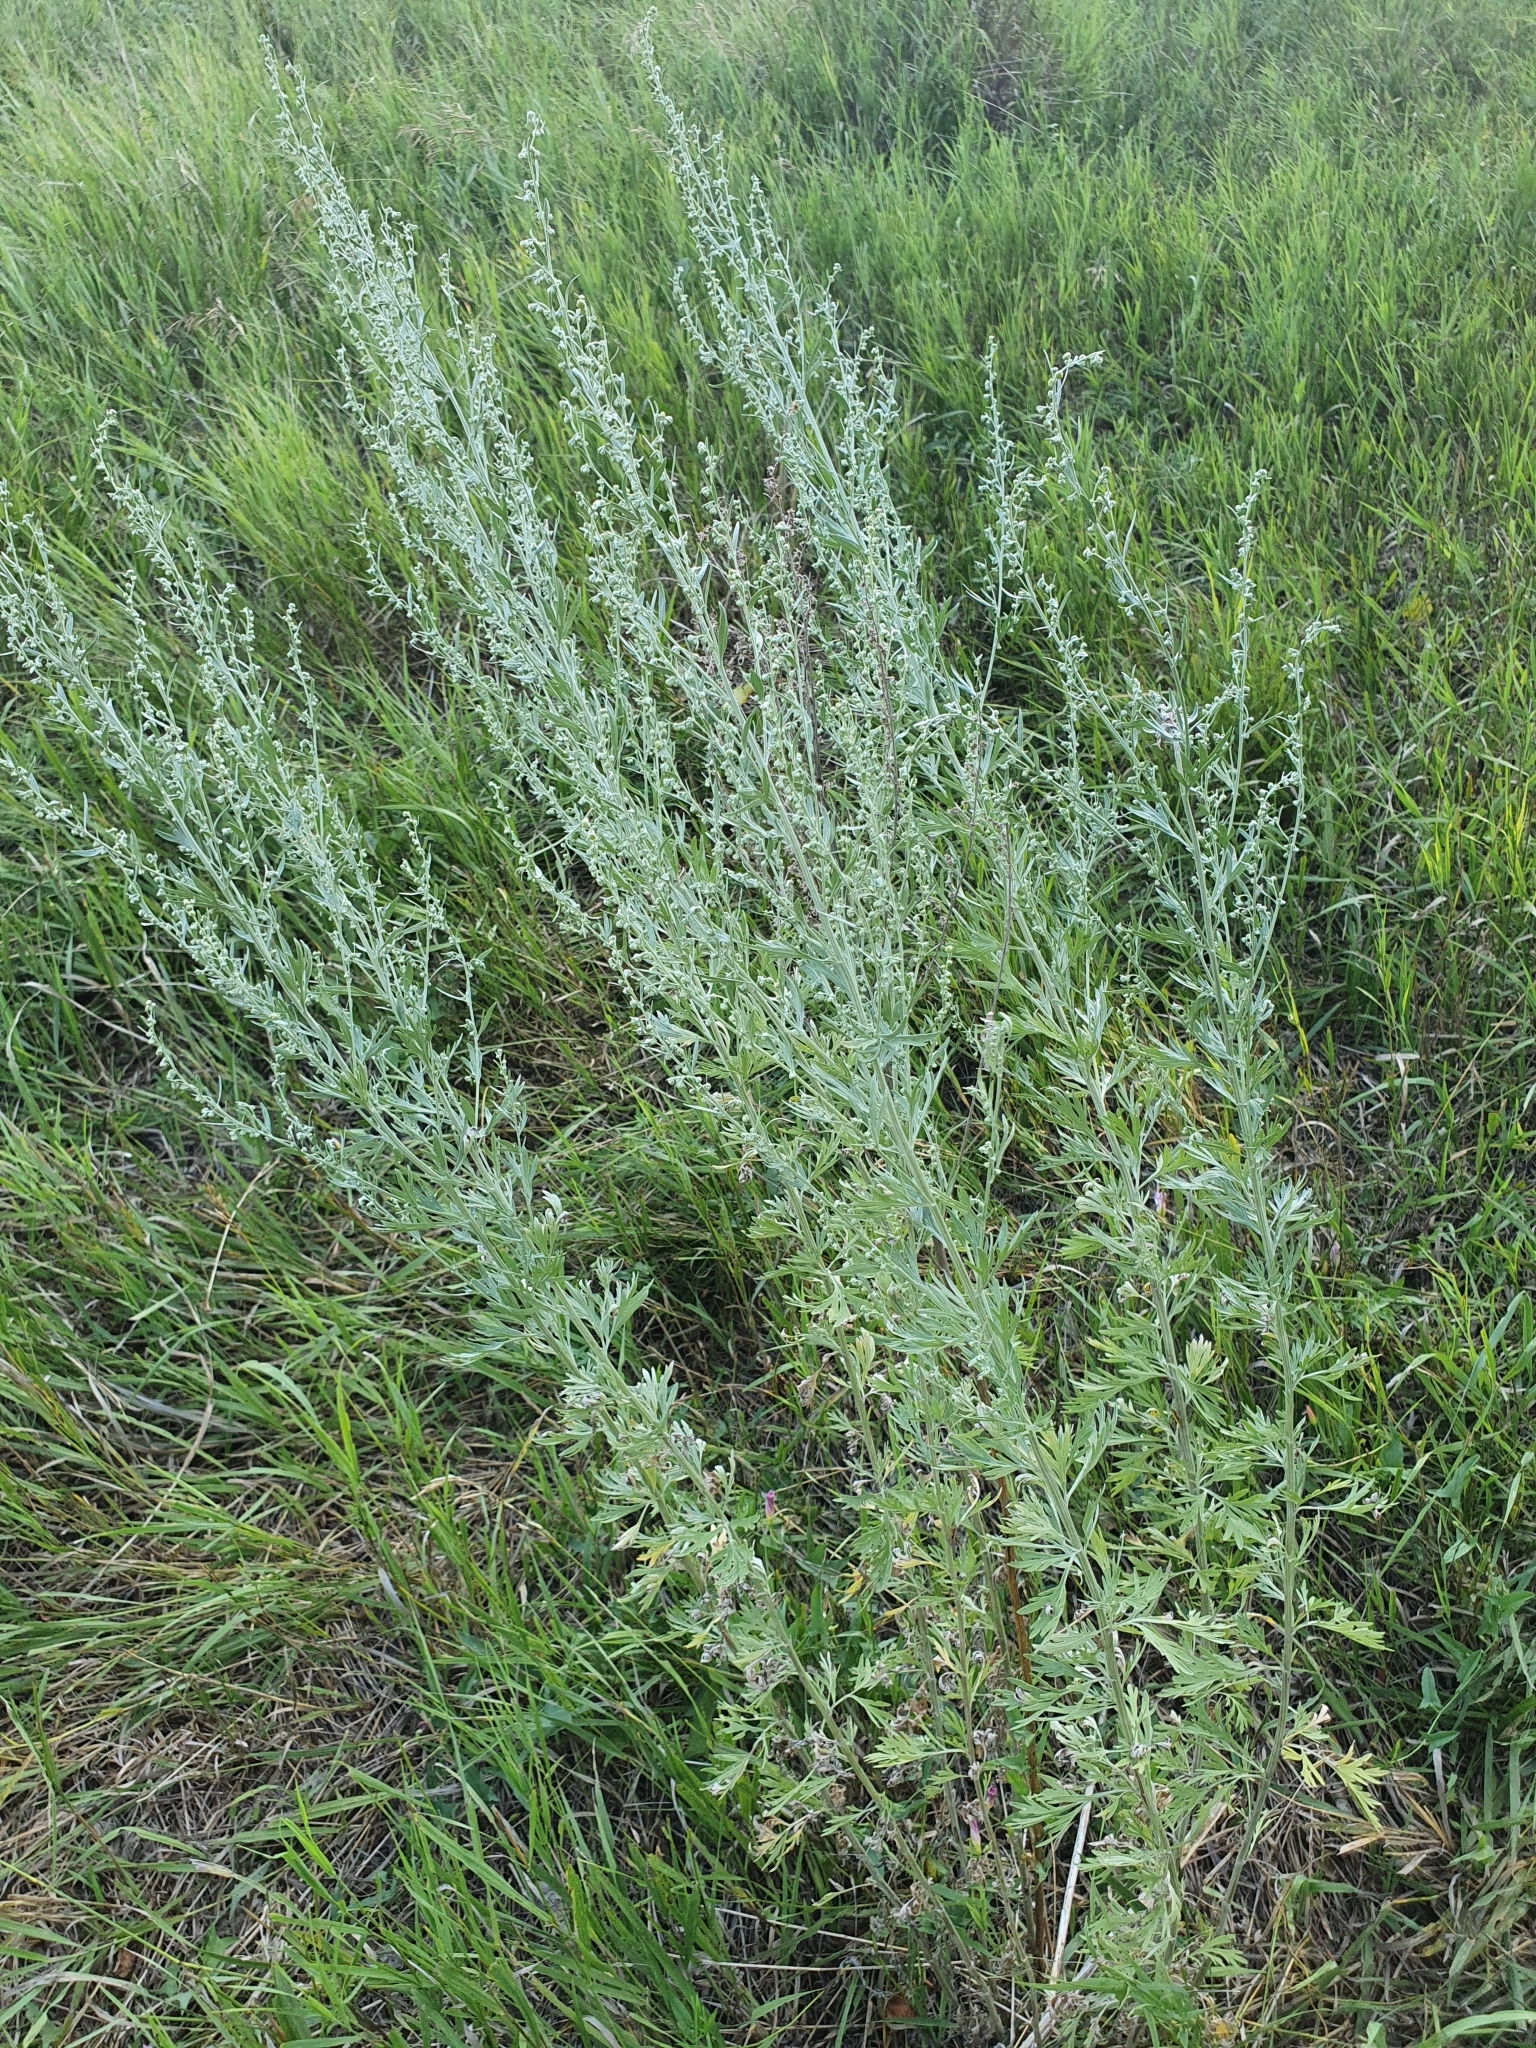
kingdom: Plantae
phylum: Tracheophyta
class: Magnoliopsida
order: Asterales
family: Asteraceae
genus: Artemisia
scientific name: Artemisia absinthium
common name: Wormwood
